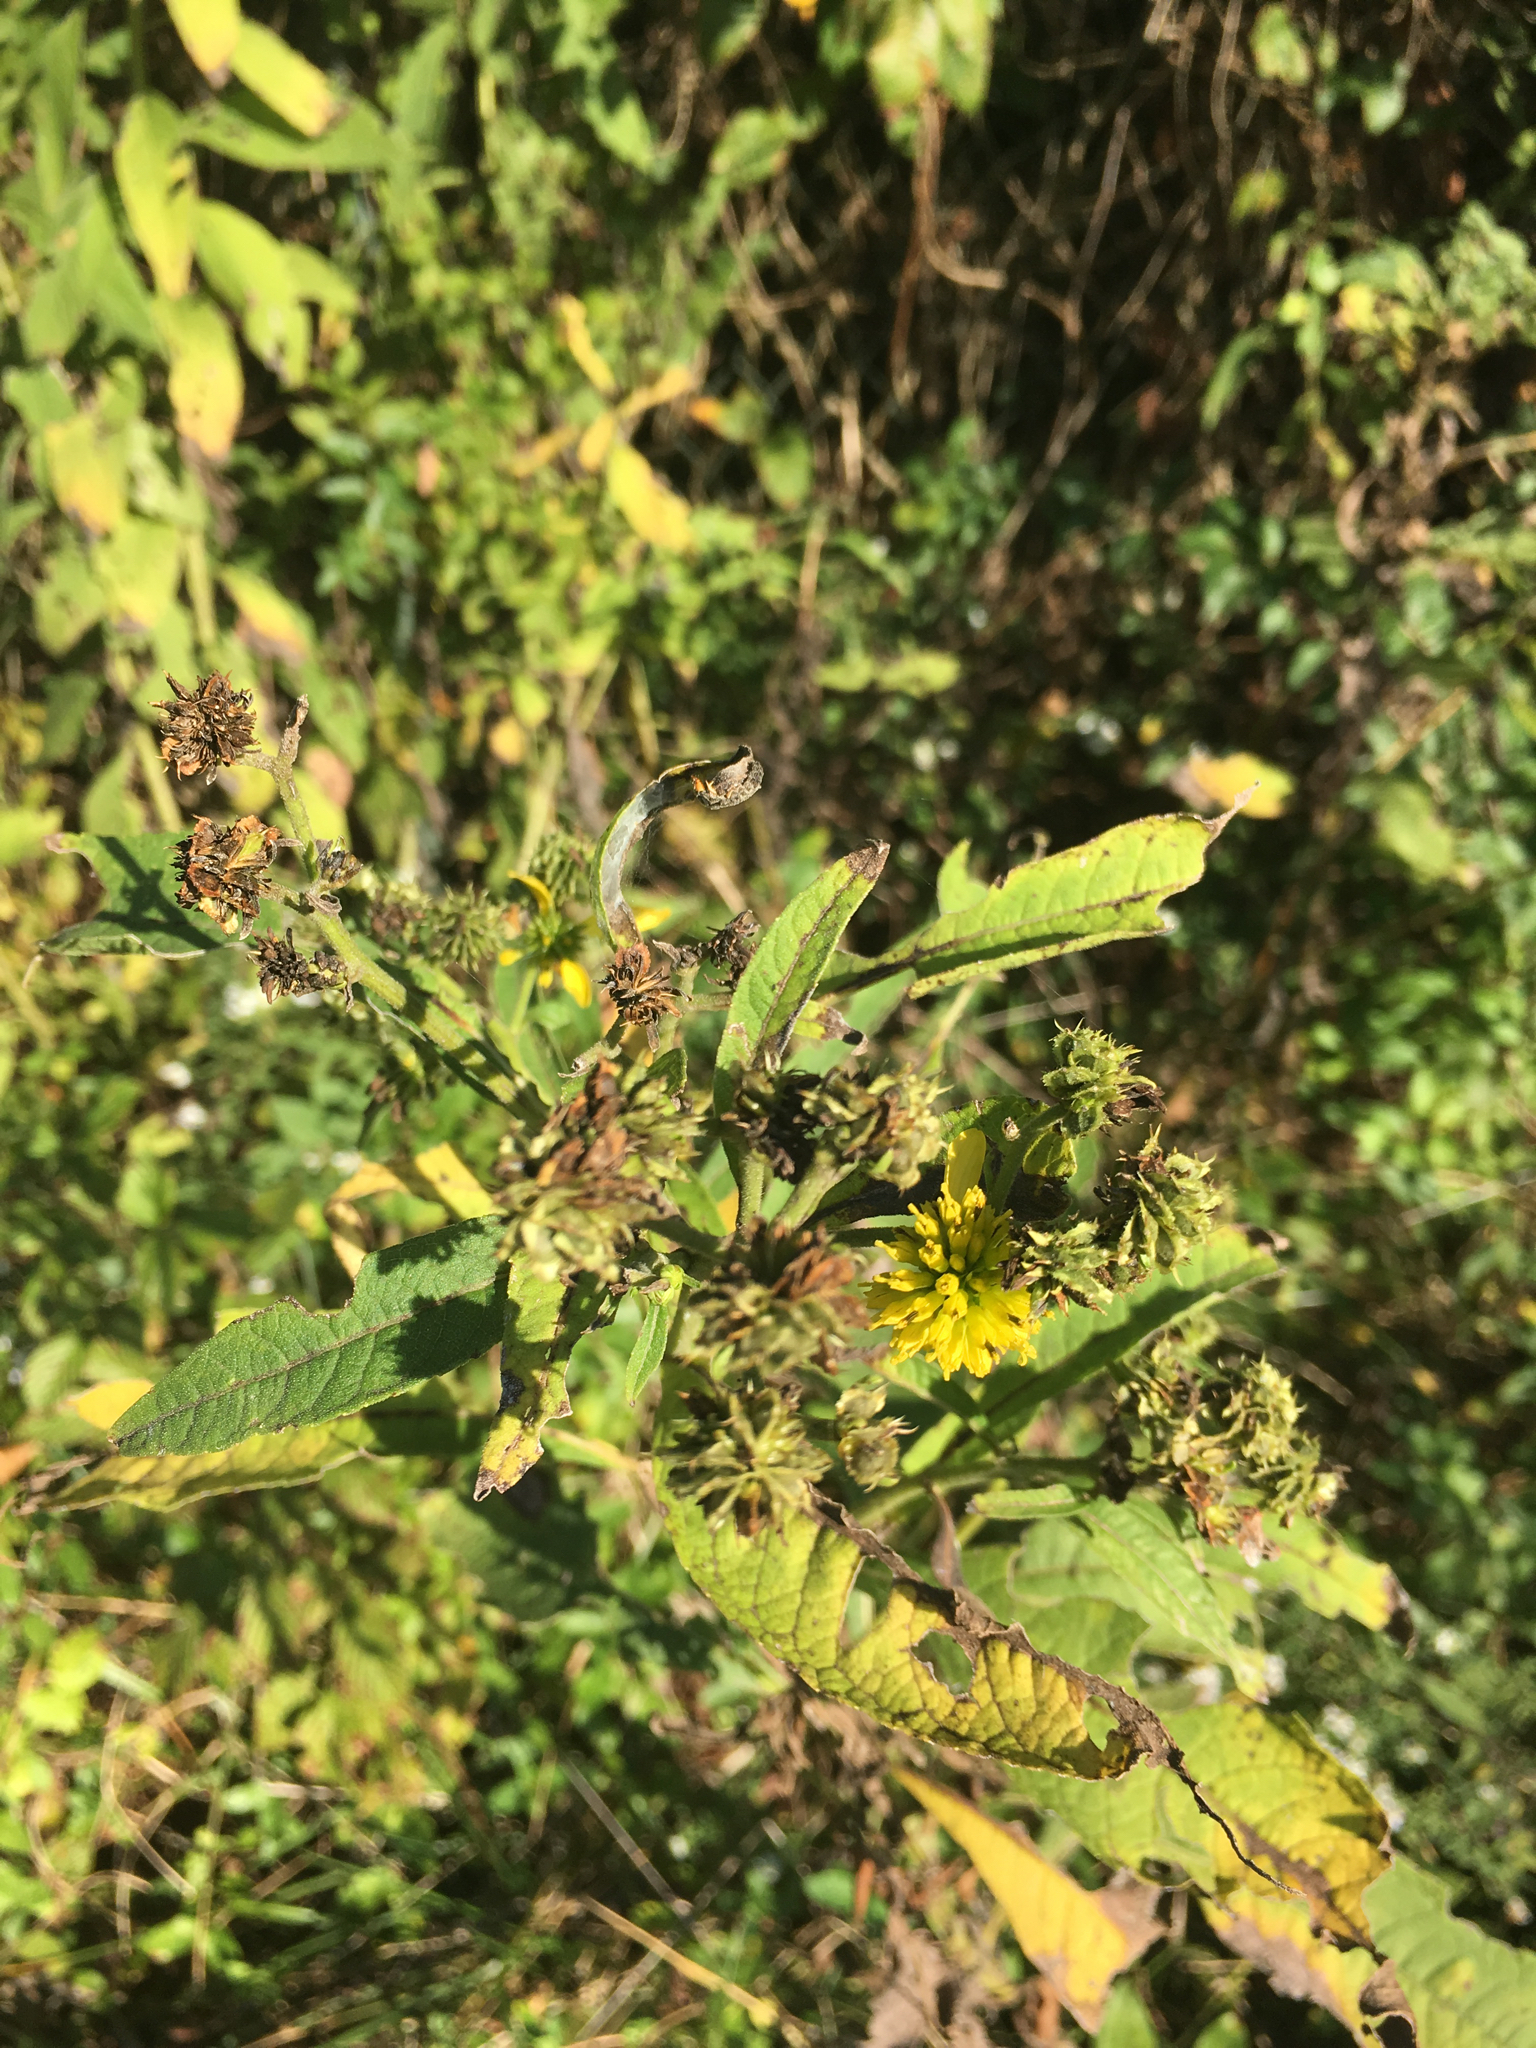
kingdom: Plantae
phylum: Tracheophyta
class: Magnoliopsida
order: Asterales
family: Asteraceae
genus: Verbesina
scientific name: Verbesina alternifolia
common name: Wingstem
